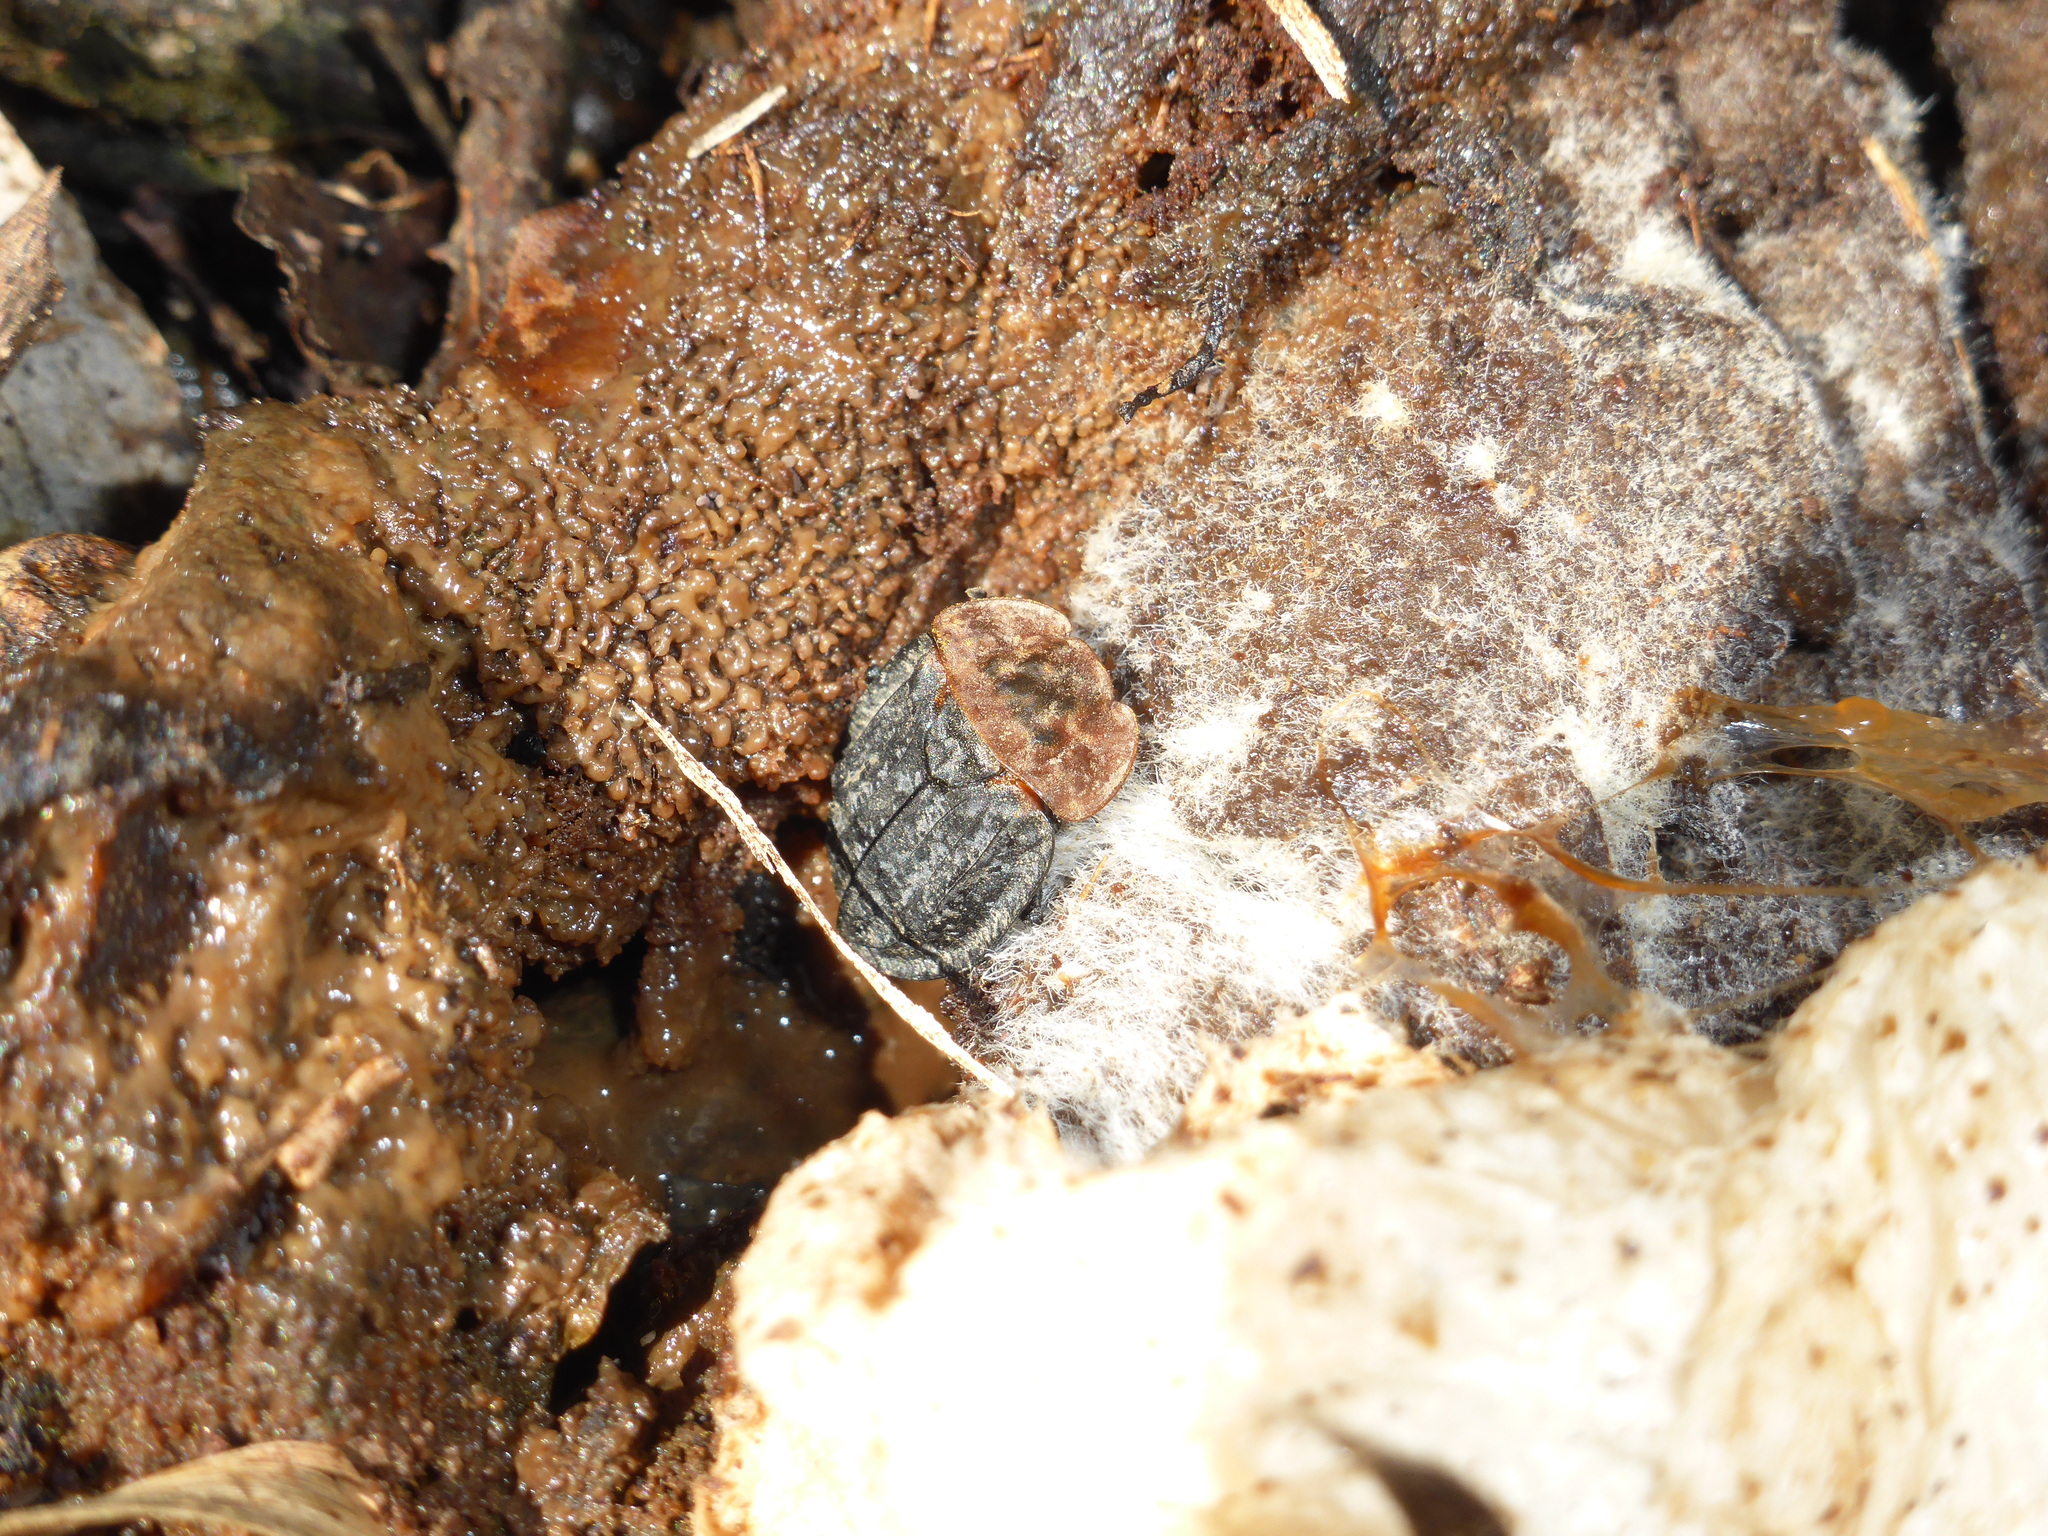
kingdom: Animalia
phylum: Arthropoda
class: Insecta
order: Coleoptera
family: Staphylinidae
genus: Oiceoptoma
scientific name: Oiceoptoma thoracicum
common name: Red-breasted carrion beetle
